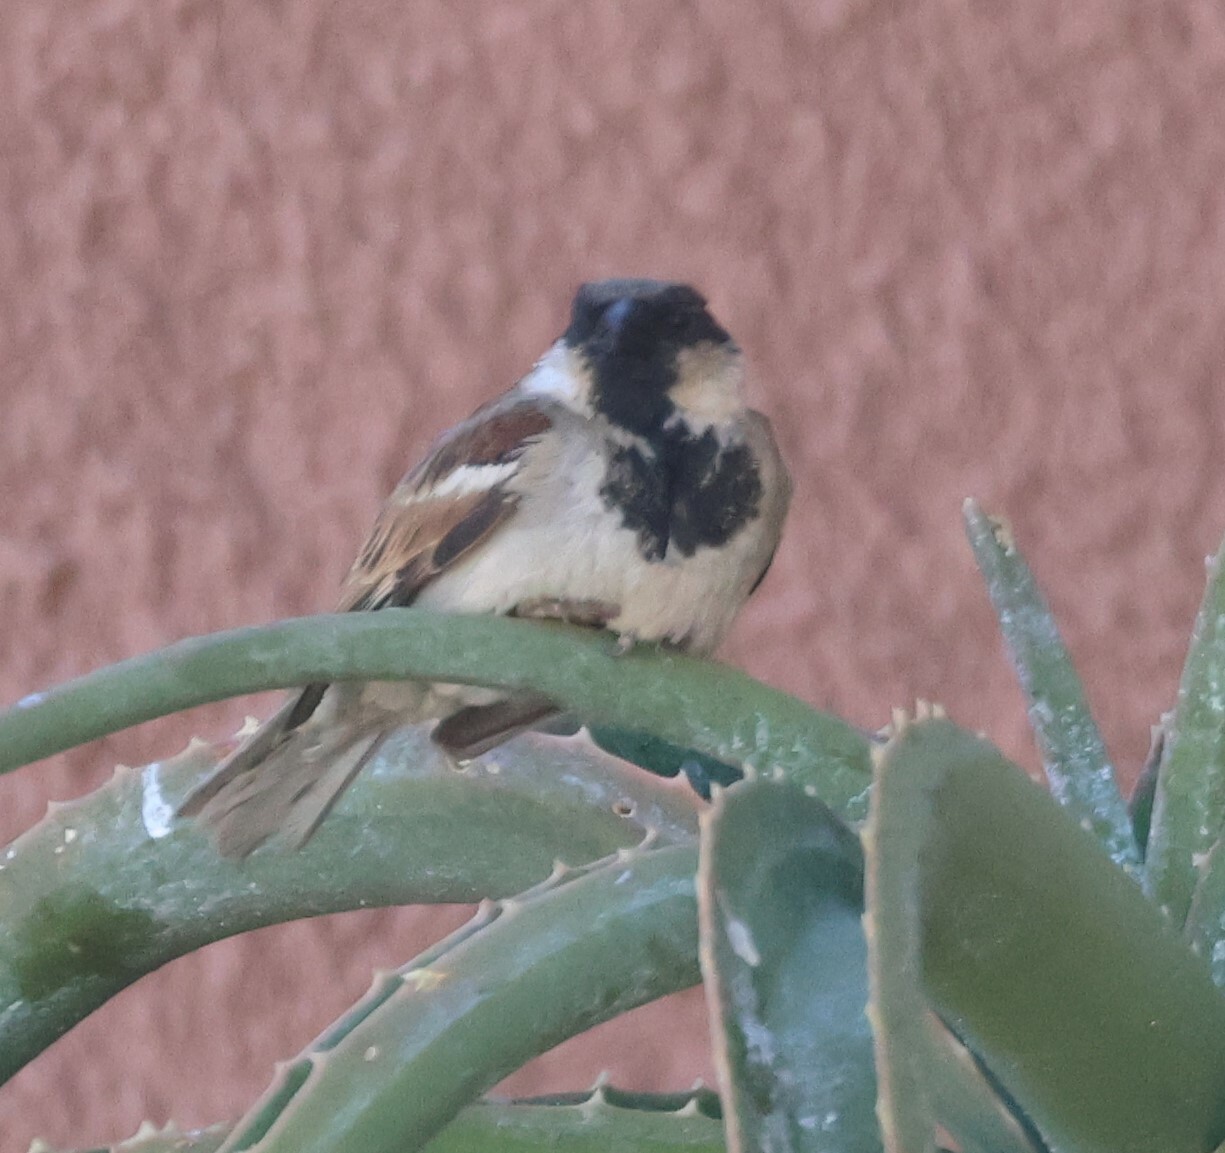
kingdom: Animalia
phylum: Chordata
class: Aves
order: Passeriformes
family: Passeridae
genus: Passer
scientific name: Passer domesticus
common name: House sparrow
